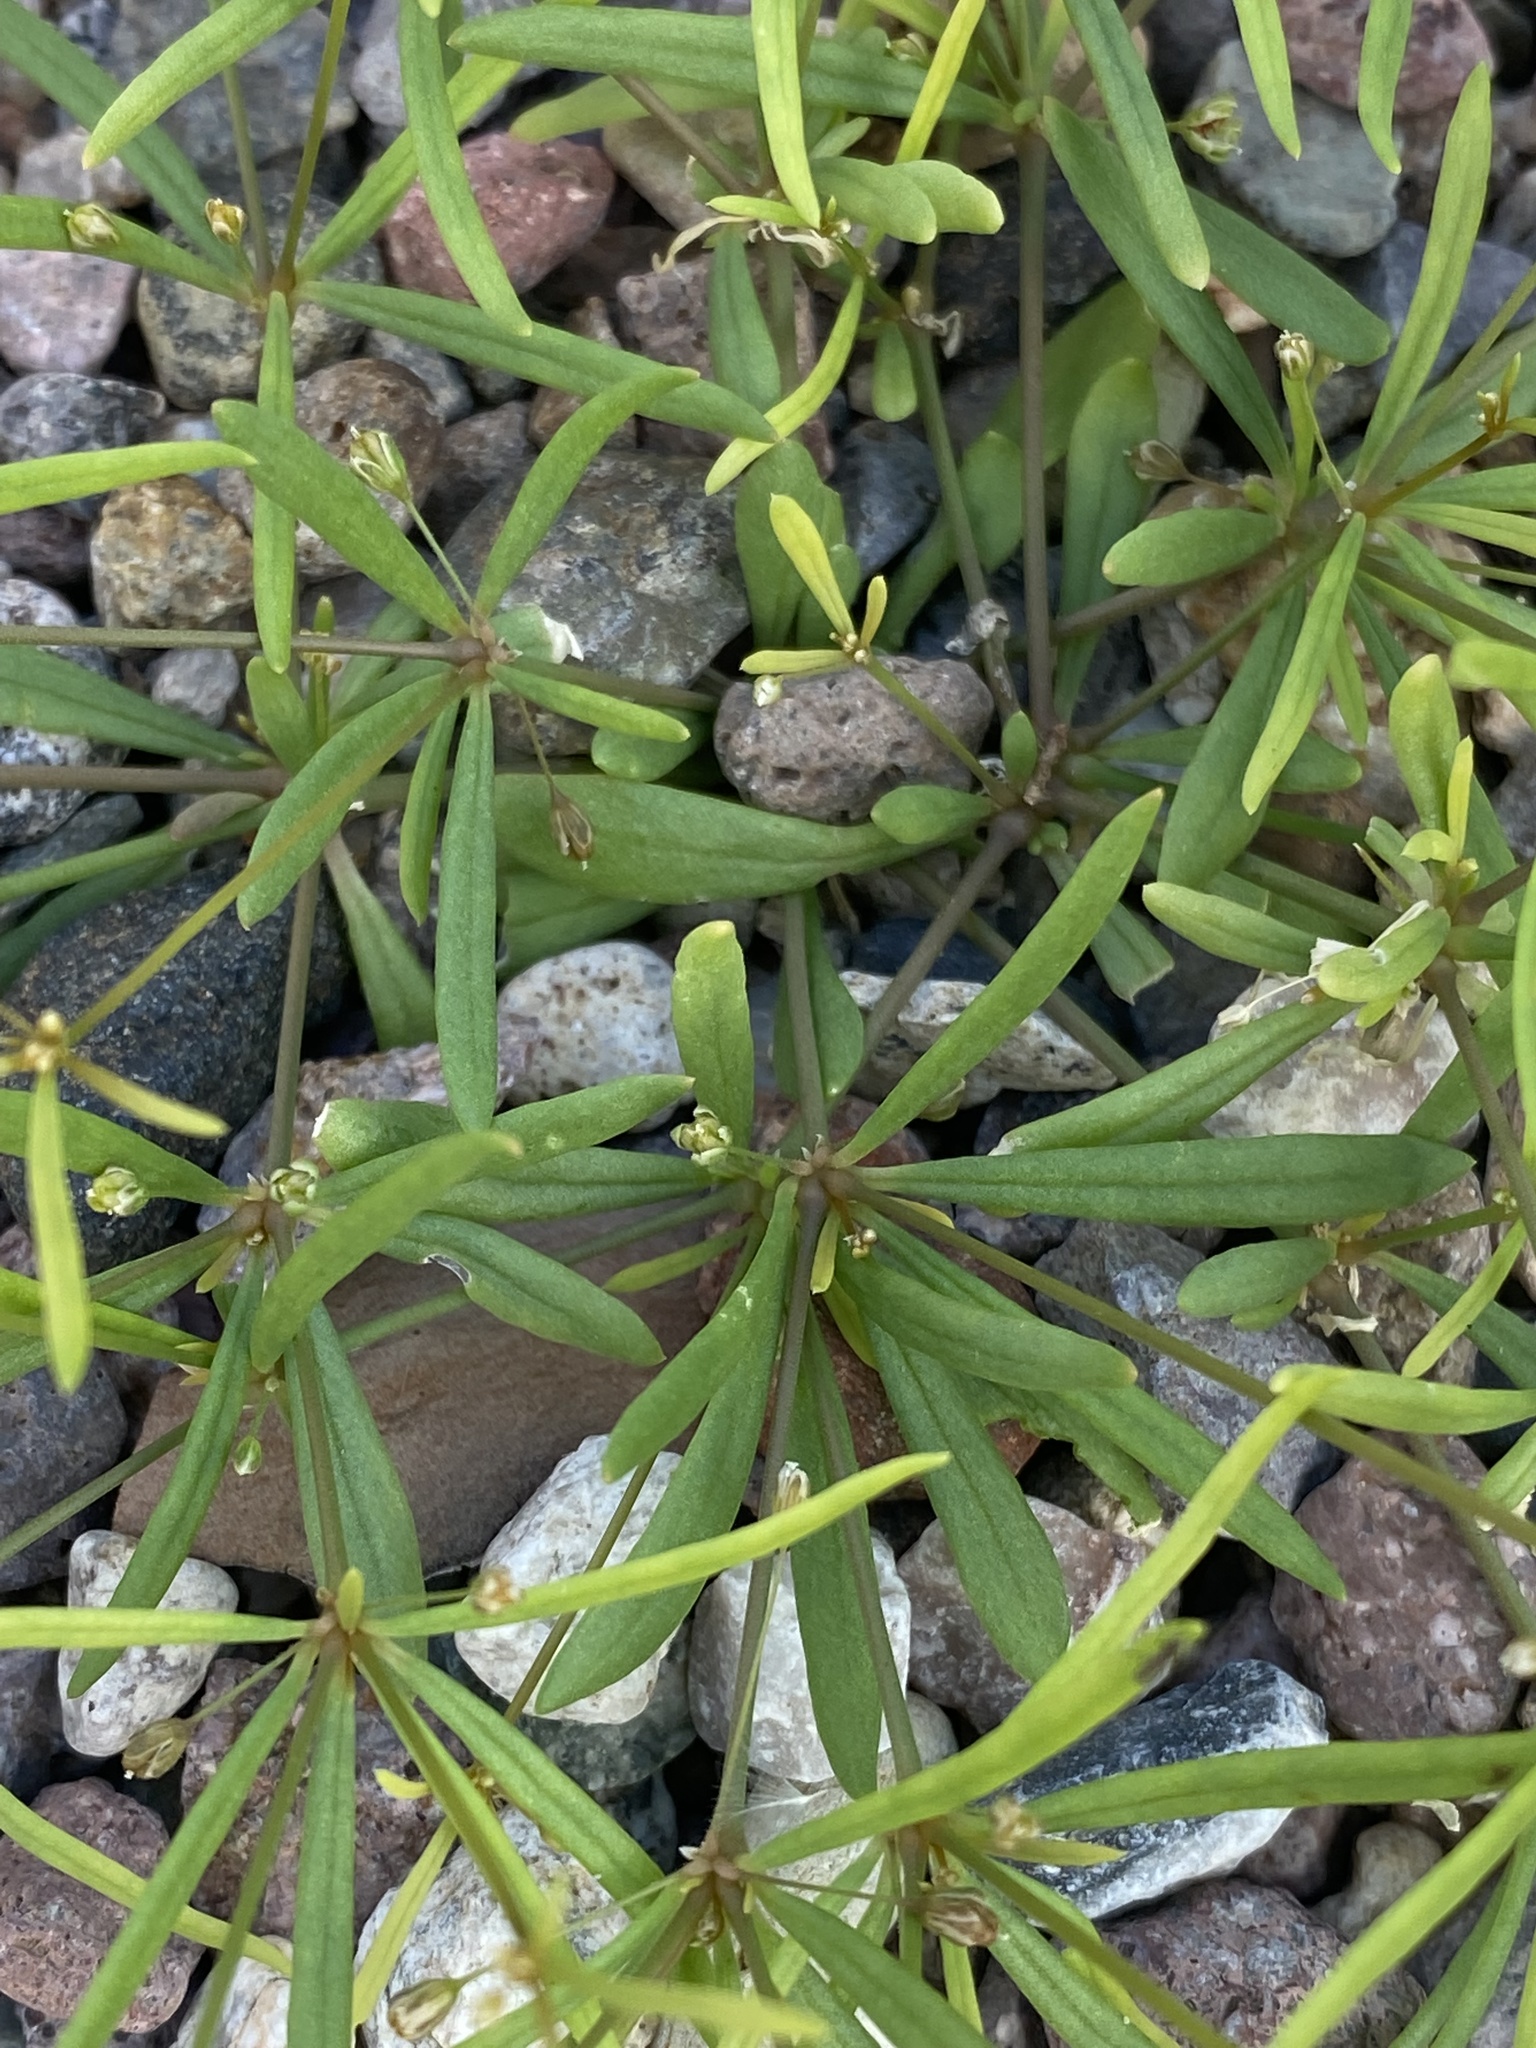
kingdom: Plantae
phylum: Tracheophyta
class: Magnoliopsida
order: Caryophyllales
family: Molluginaceae
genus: Mollugo
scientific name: Mollugo verticillata
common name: Green carpetweed
